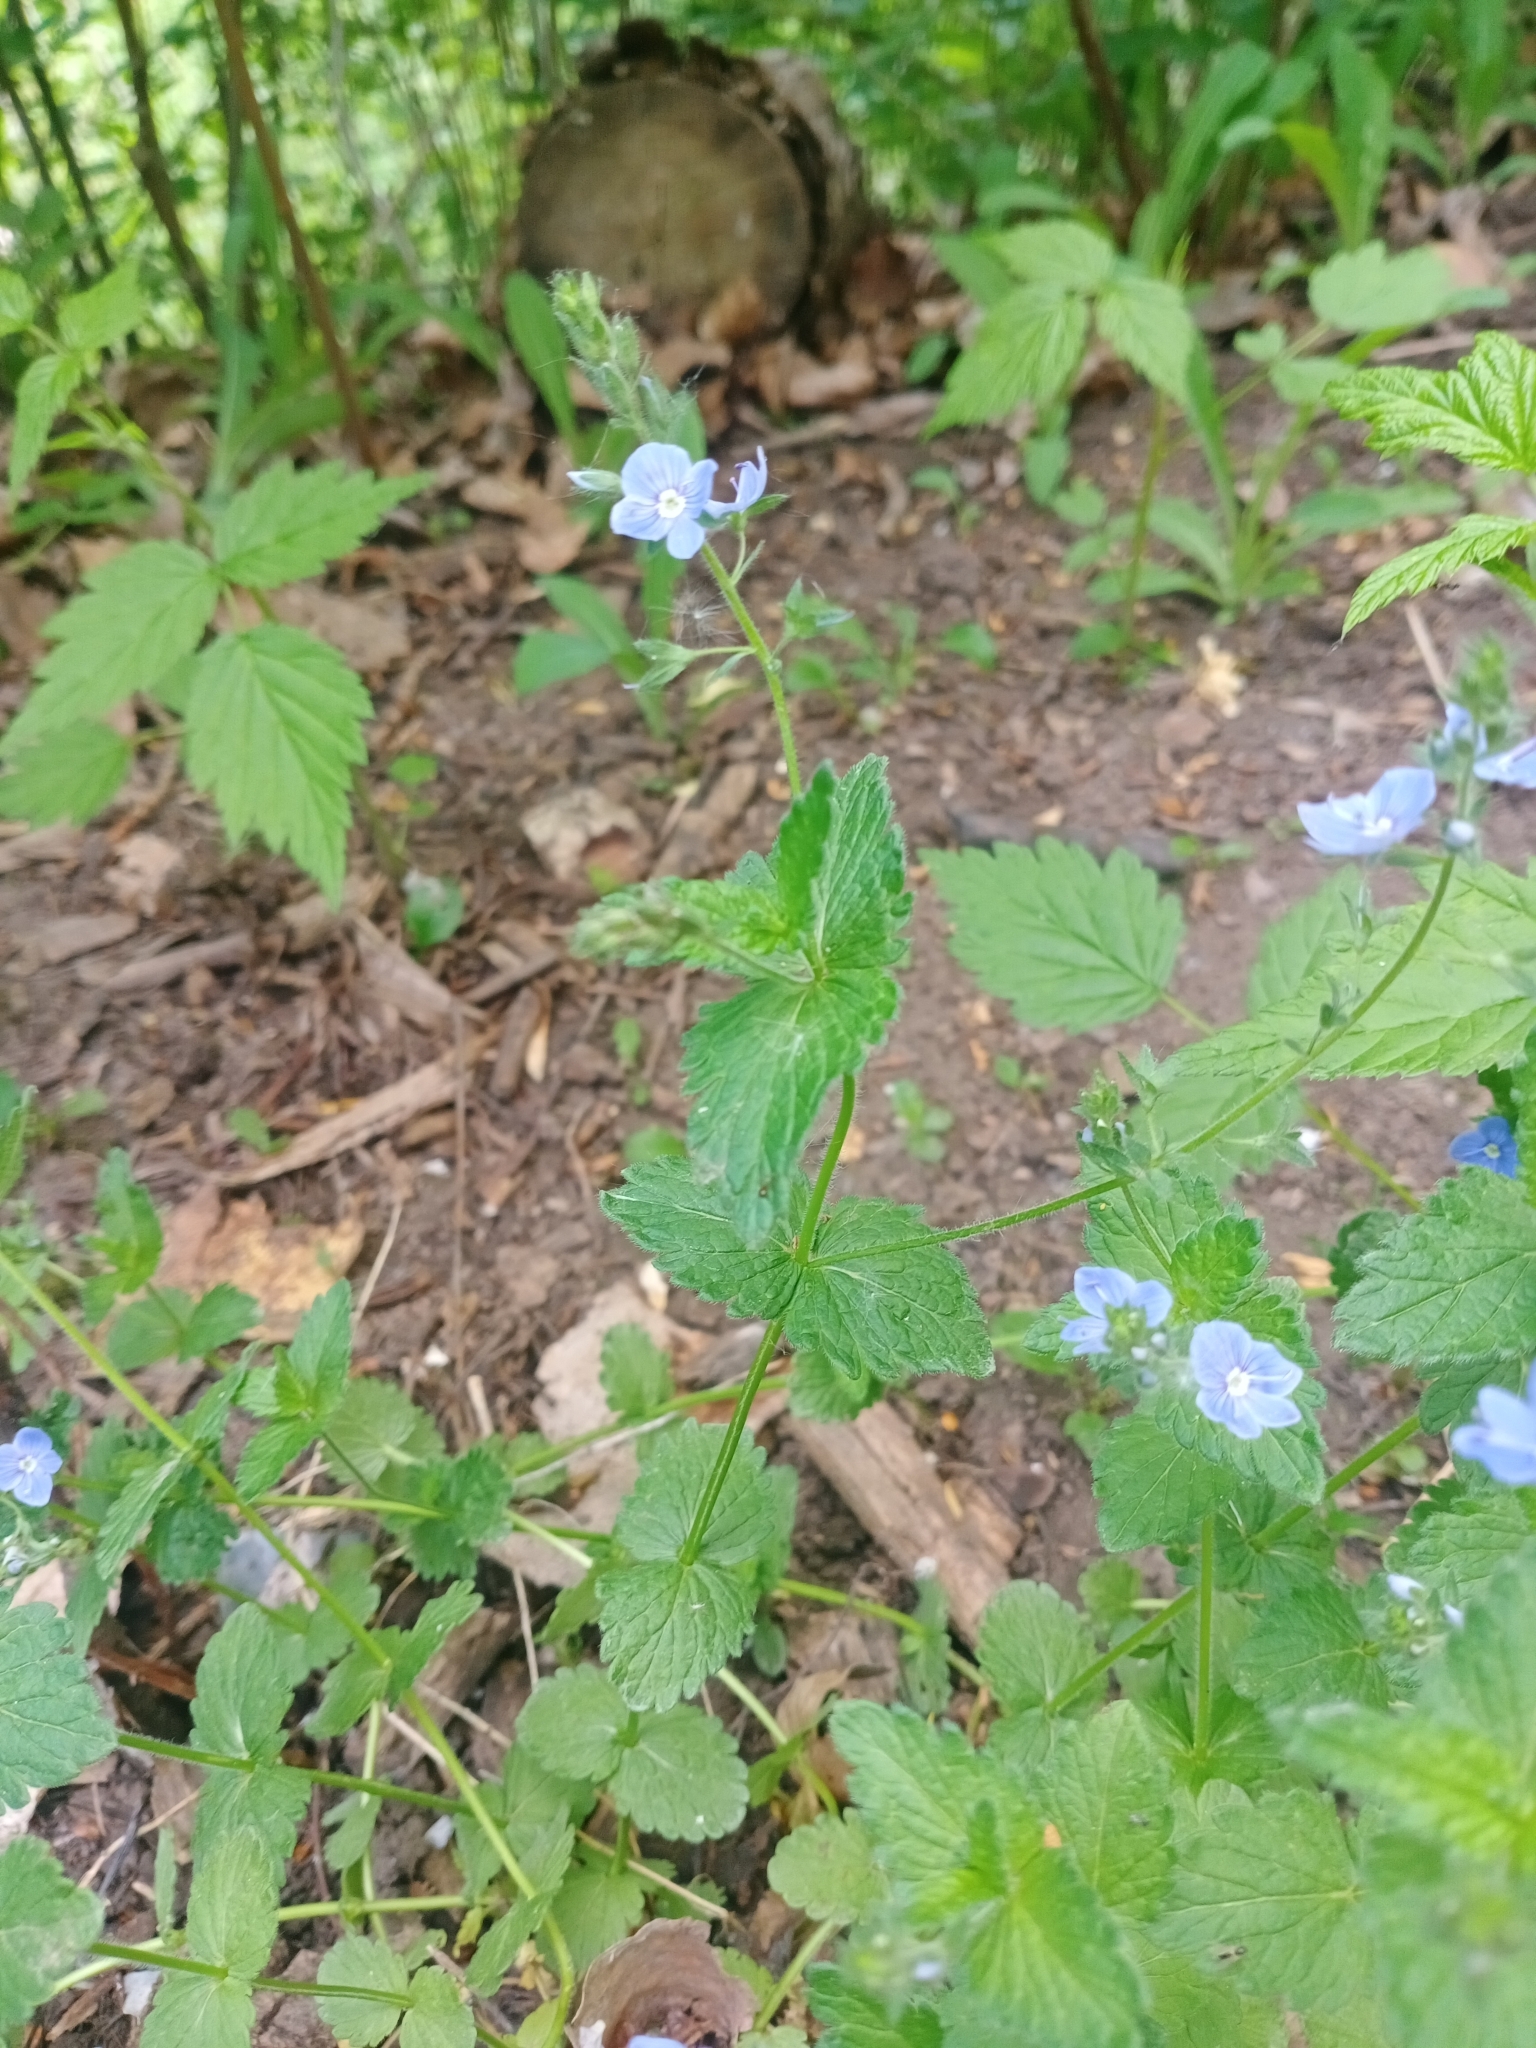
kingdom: Plantae
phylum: Tracheophyta
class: Magnoliopsida
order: Lamiales
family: Plantaginaceae
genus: Veronica
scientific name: Veronica chamaedrys
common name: Germander speedwell
